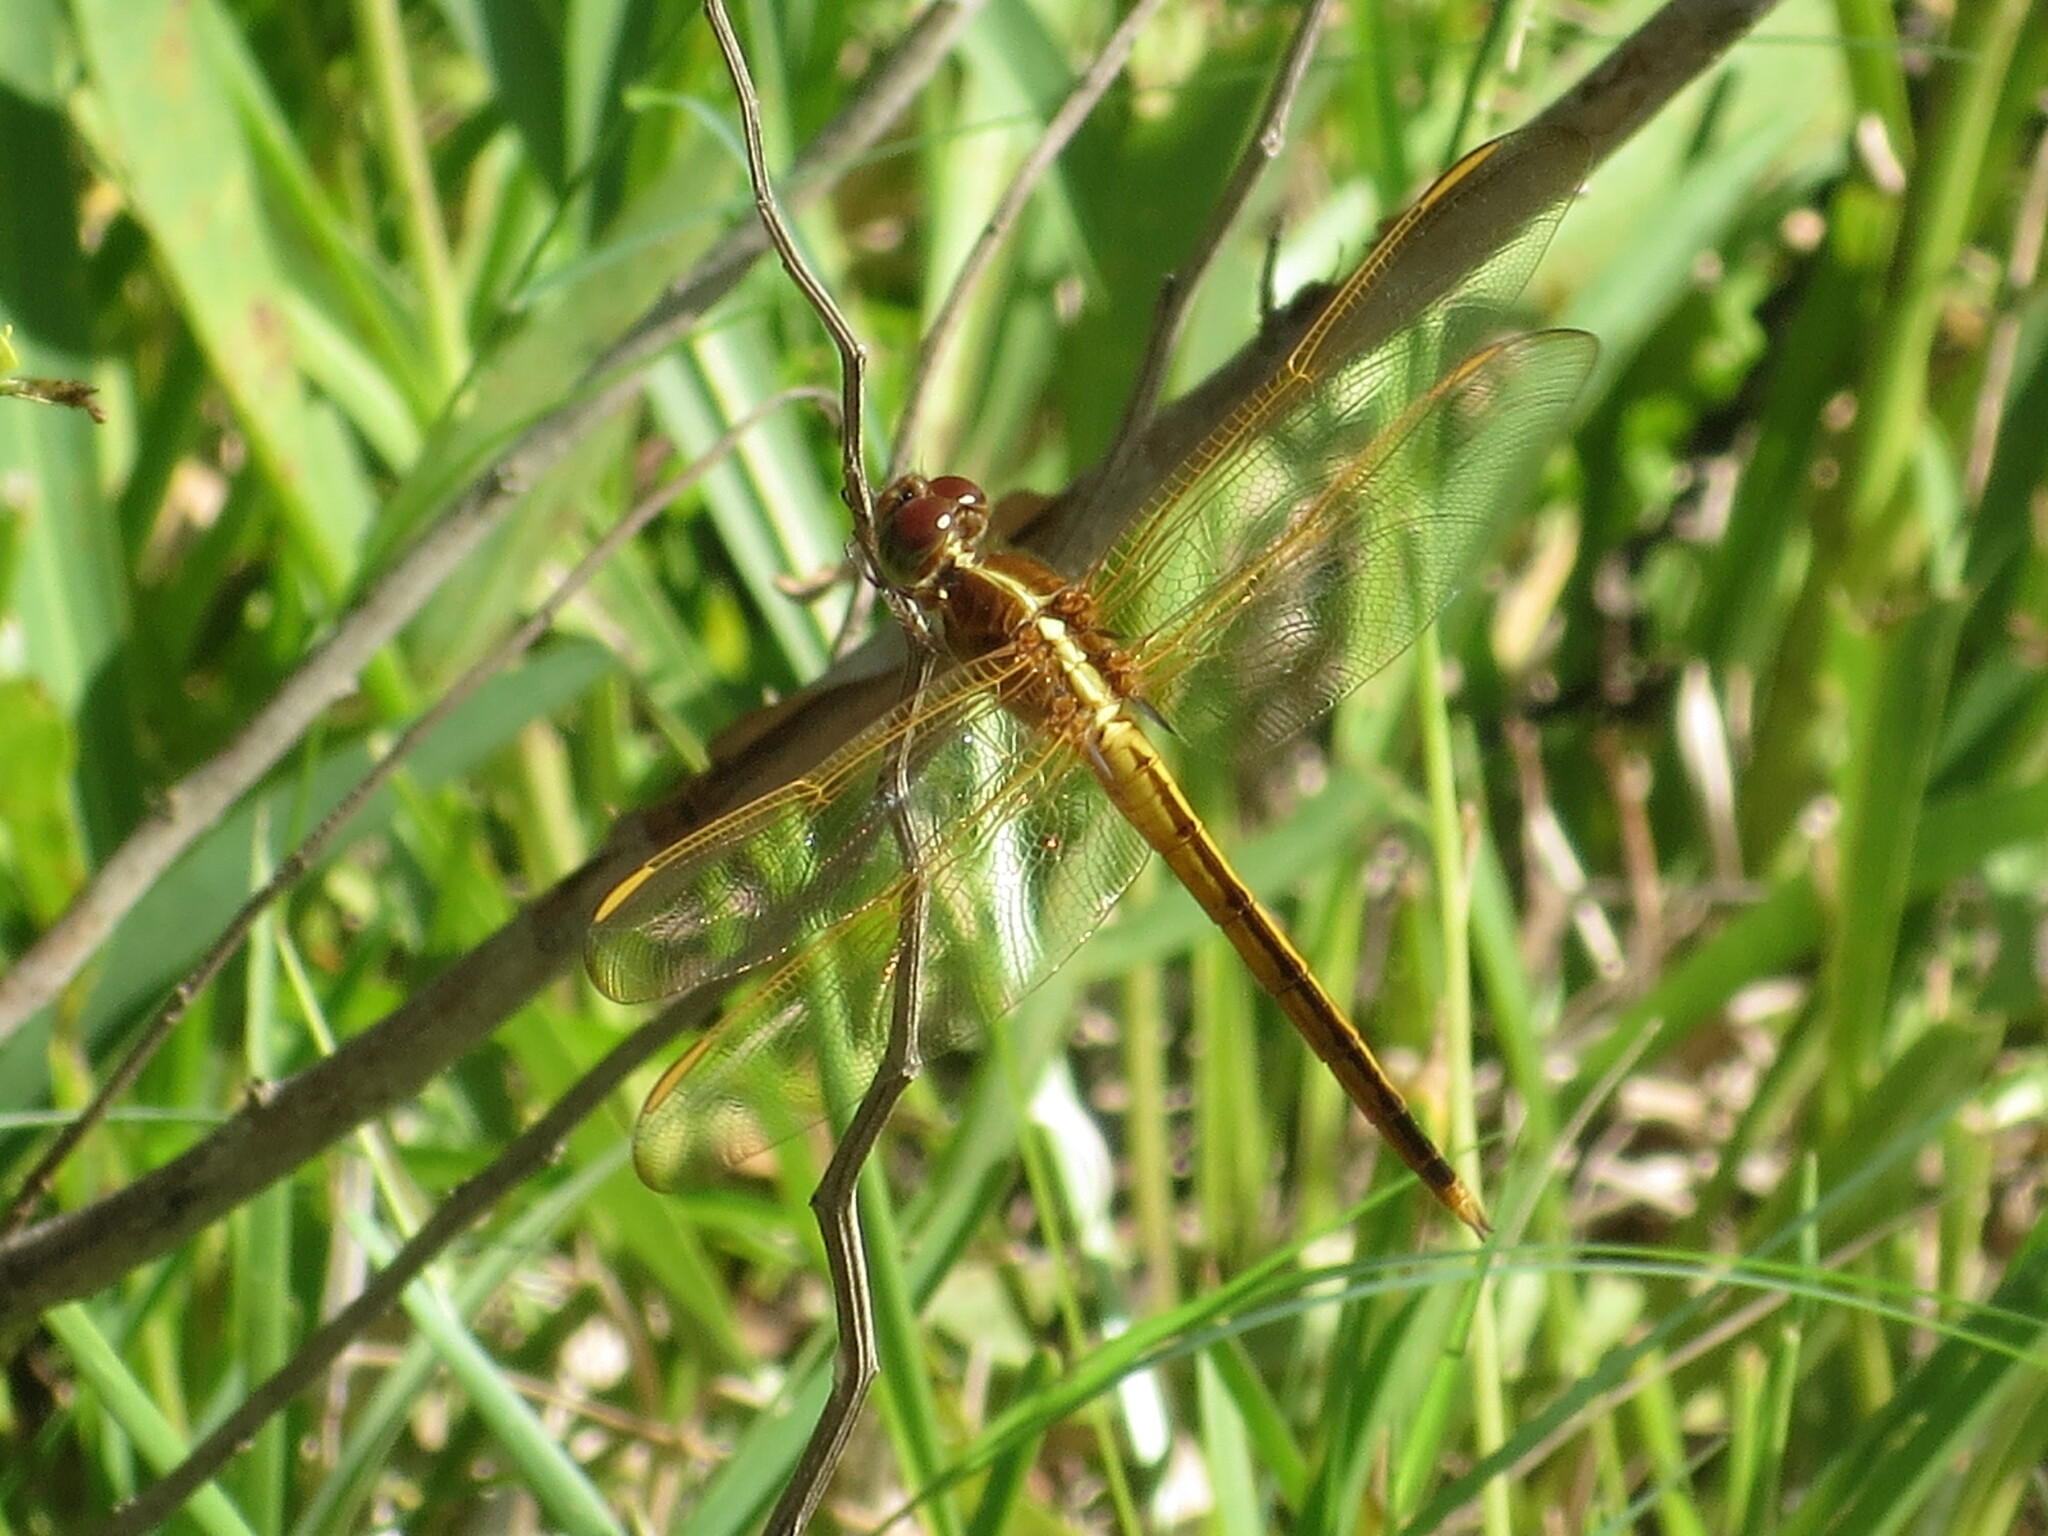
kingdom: Animalia
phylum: Arthropoda
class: Insecta
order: Odonata
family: Libellulidae
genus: Libellula
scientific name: Libellula needhami
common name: Needham's skimmer
